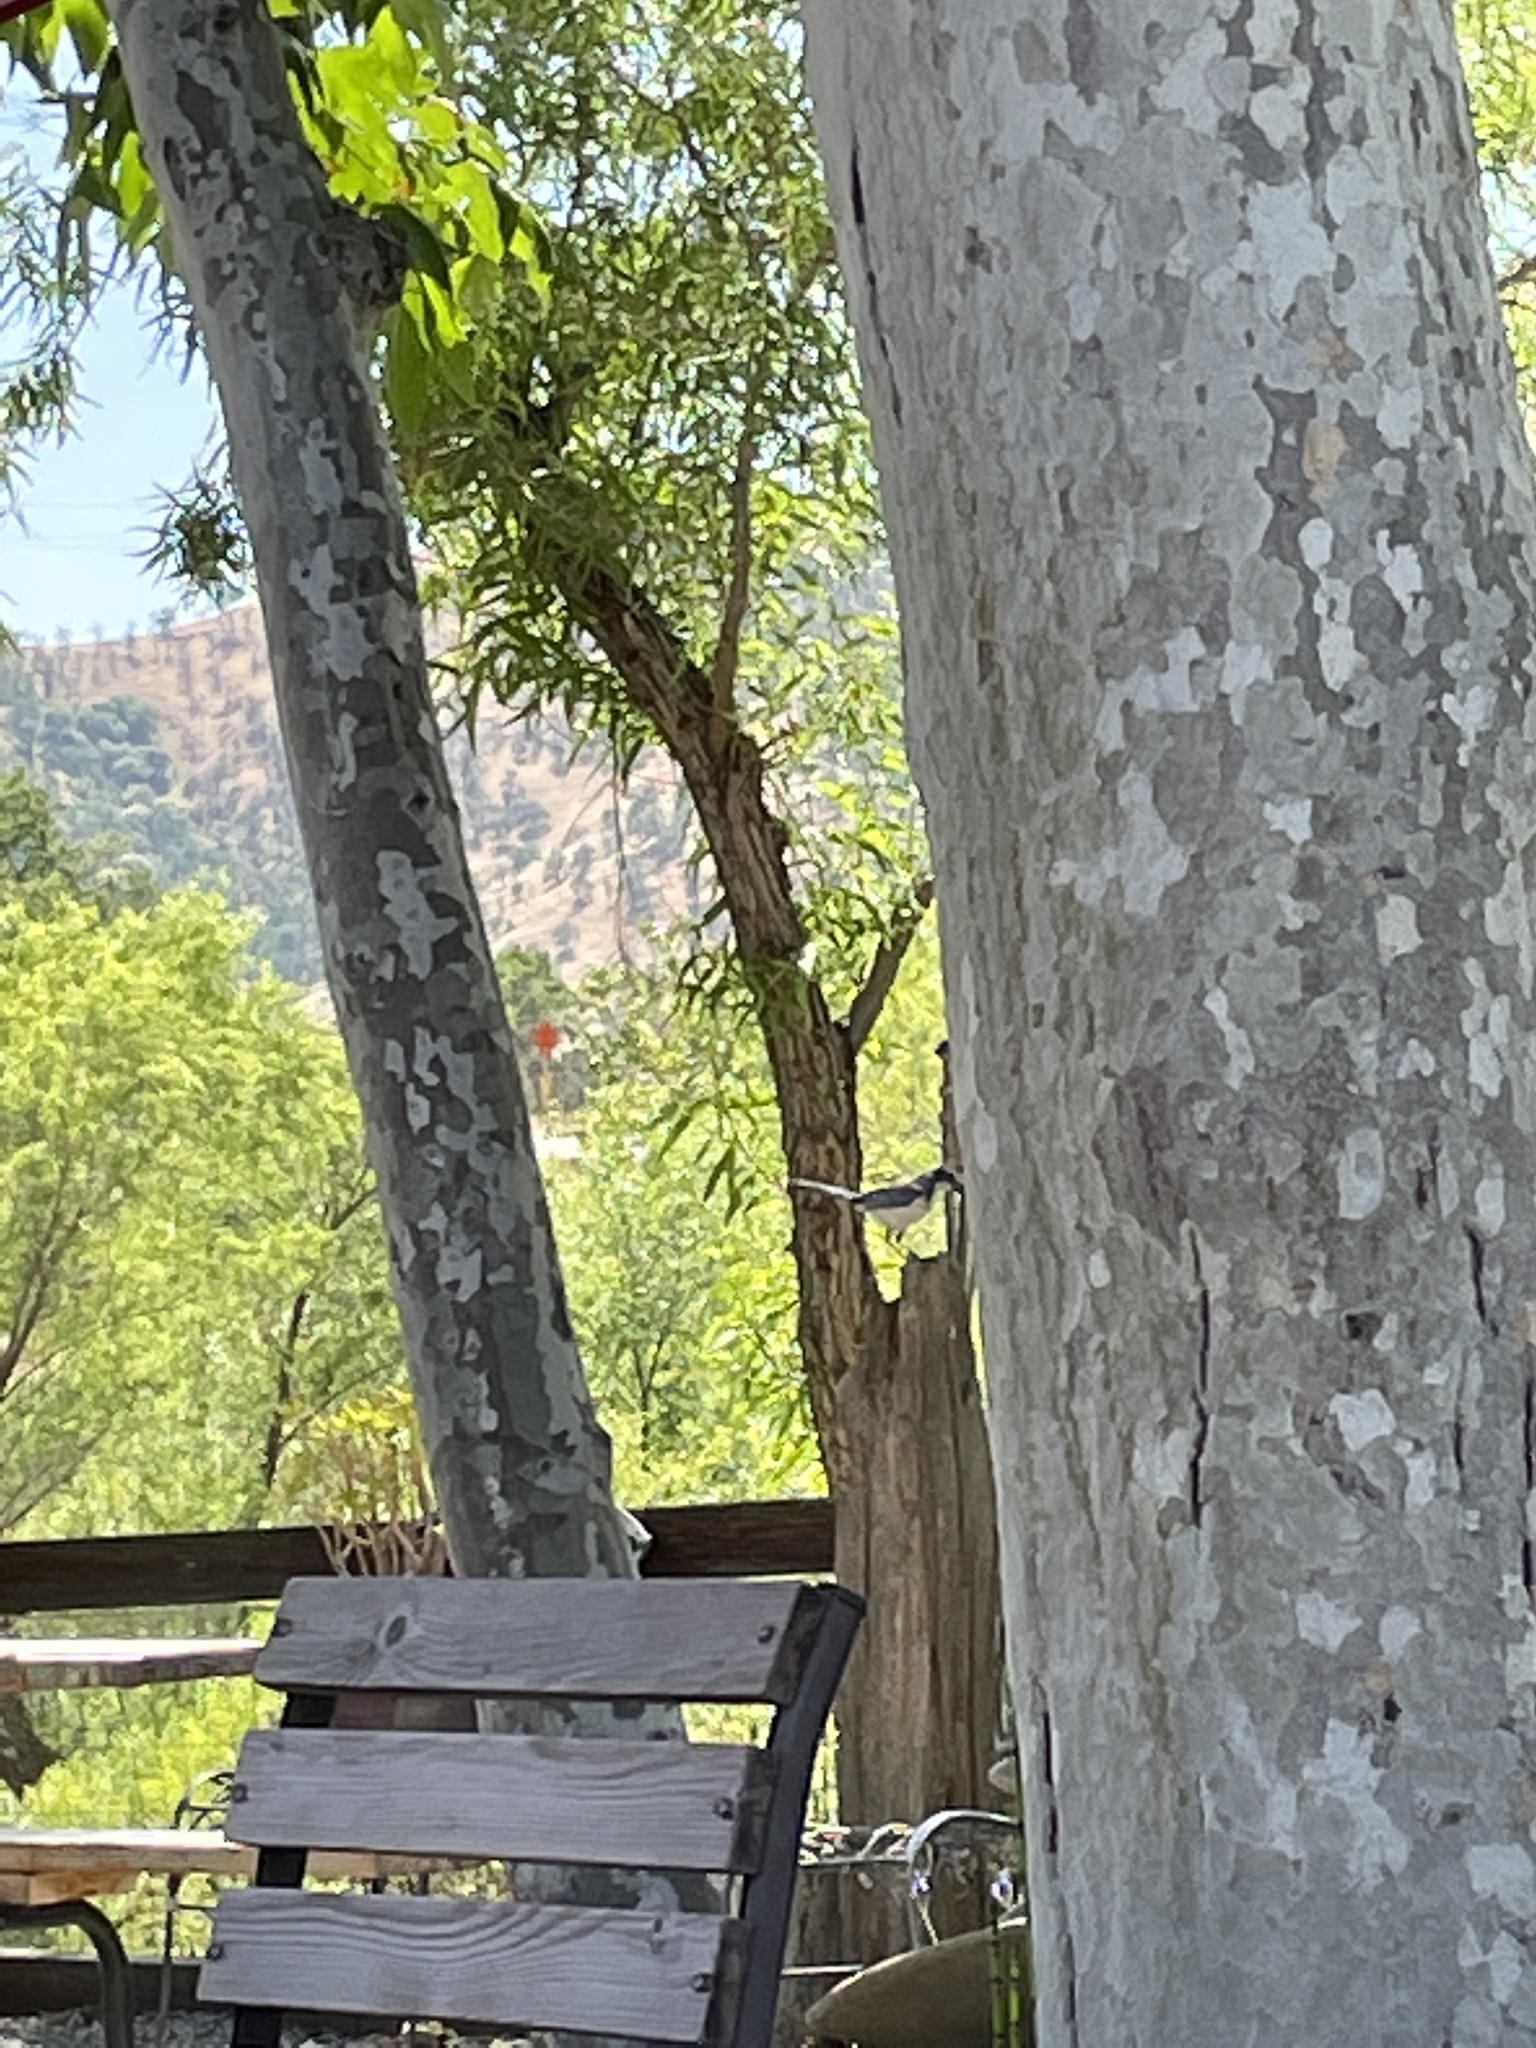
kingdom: Animalia
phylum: Chordata
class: Aves
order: Passeriformes
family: Corvidae
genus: Aphelocoma
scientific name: Aphelocoma californica
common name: California scrub-jay
